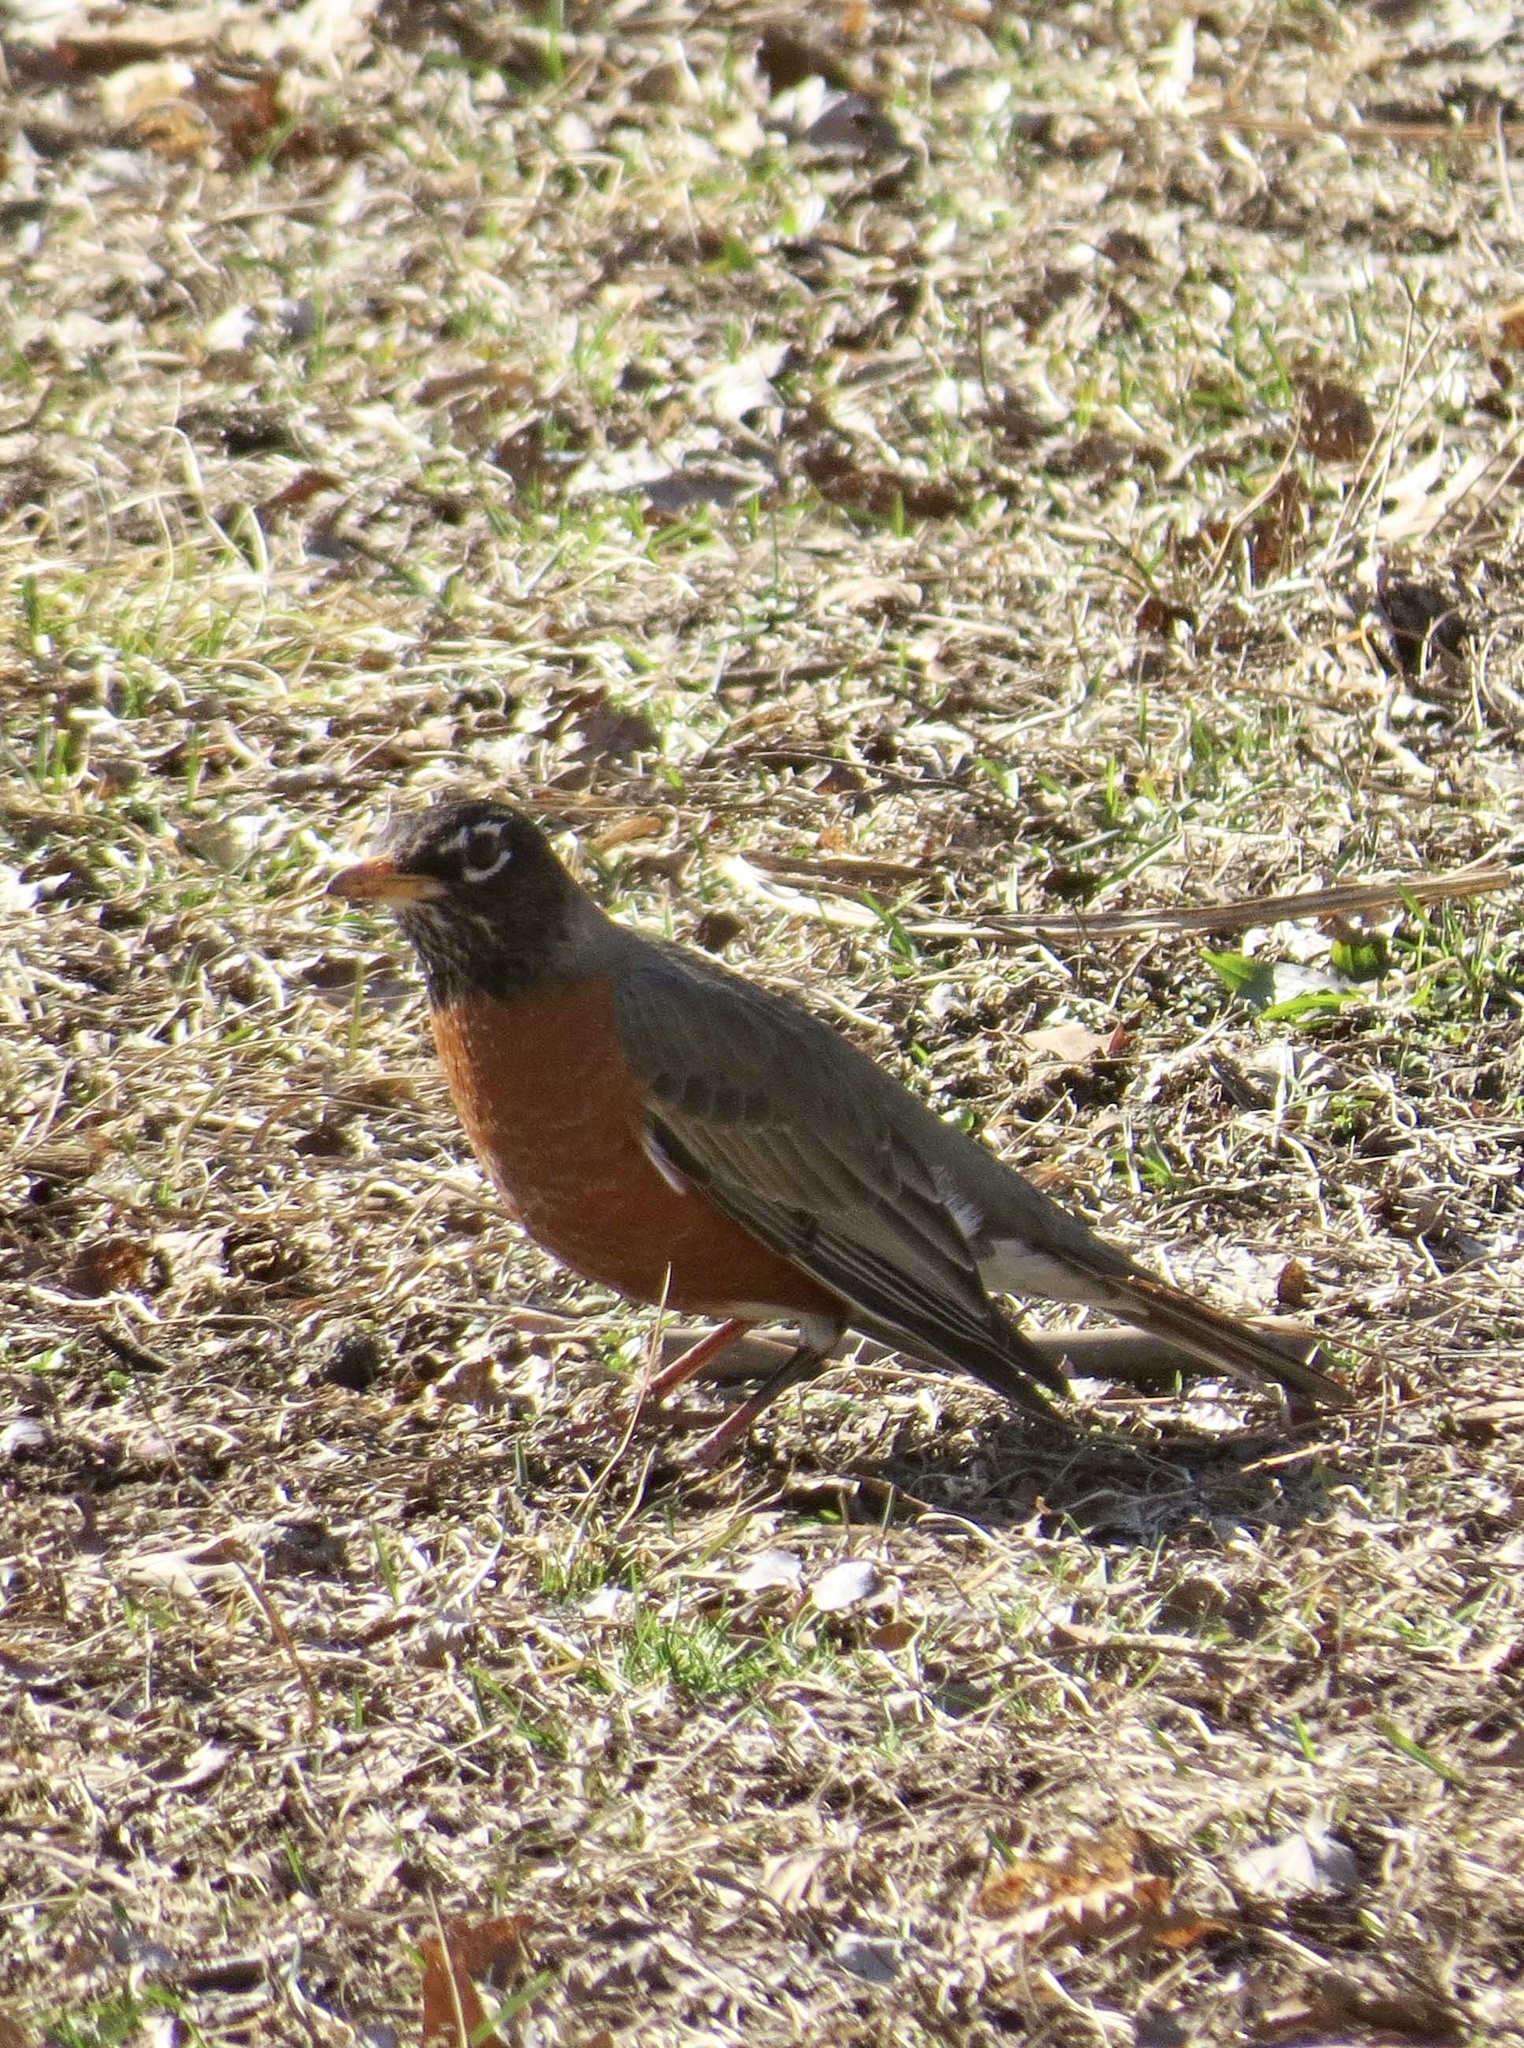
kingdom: Animalia
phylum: Chordata
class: Aves
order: Passeriformes
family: Turdidae
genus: Turdus
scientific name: Turdus migratorius
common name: American robin
